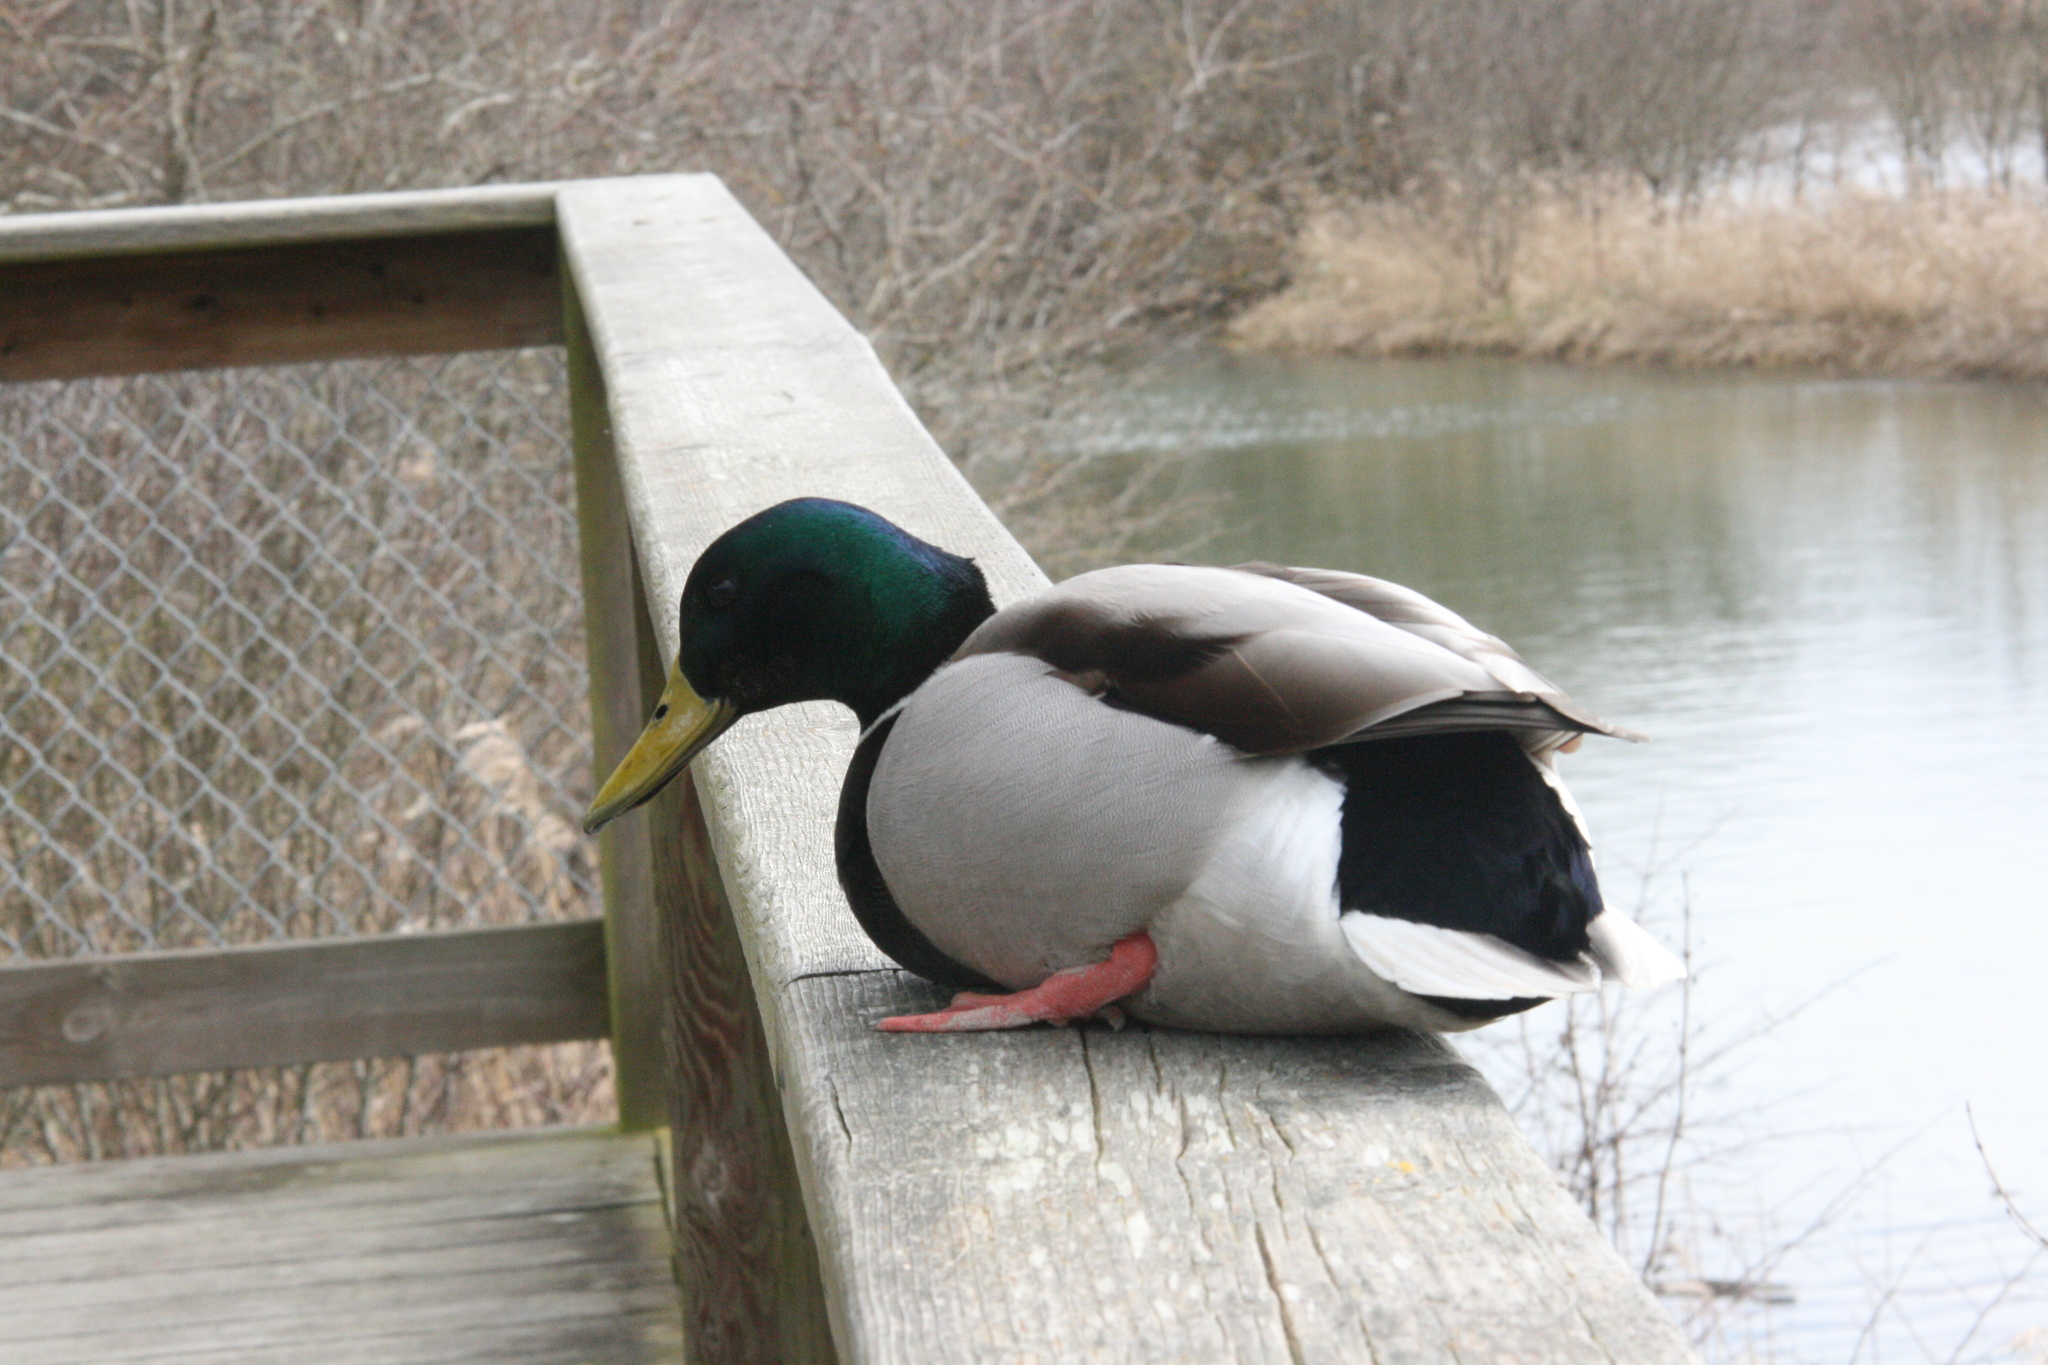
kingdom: Animalia
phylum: Chordata
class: Aves
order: Anseriformes
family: Anatidae
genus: Anas
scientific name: Anas platyrhynchos
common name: Mallard
